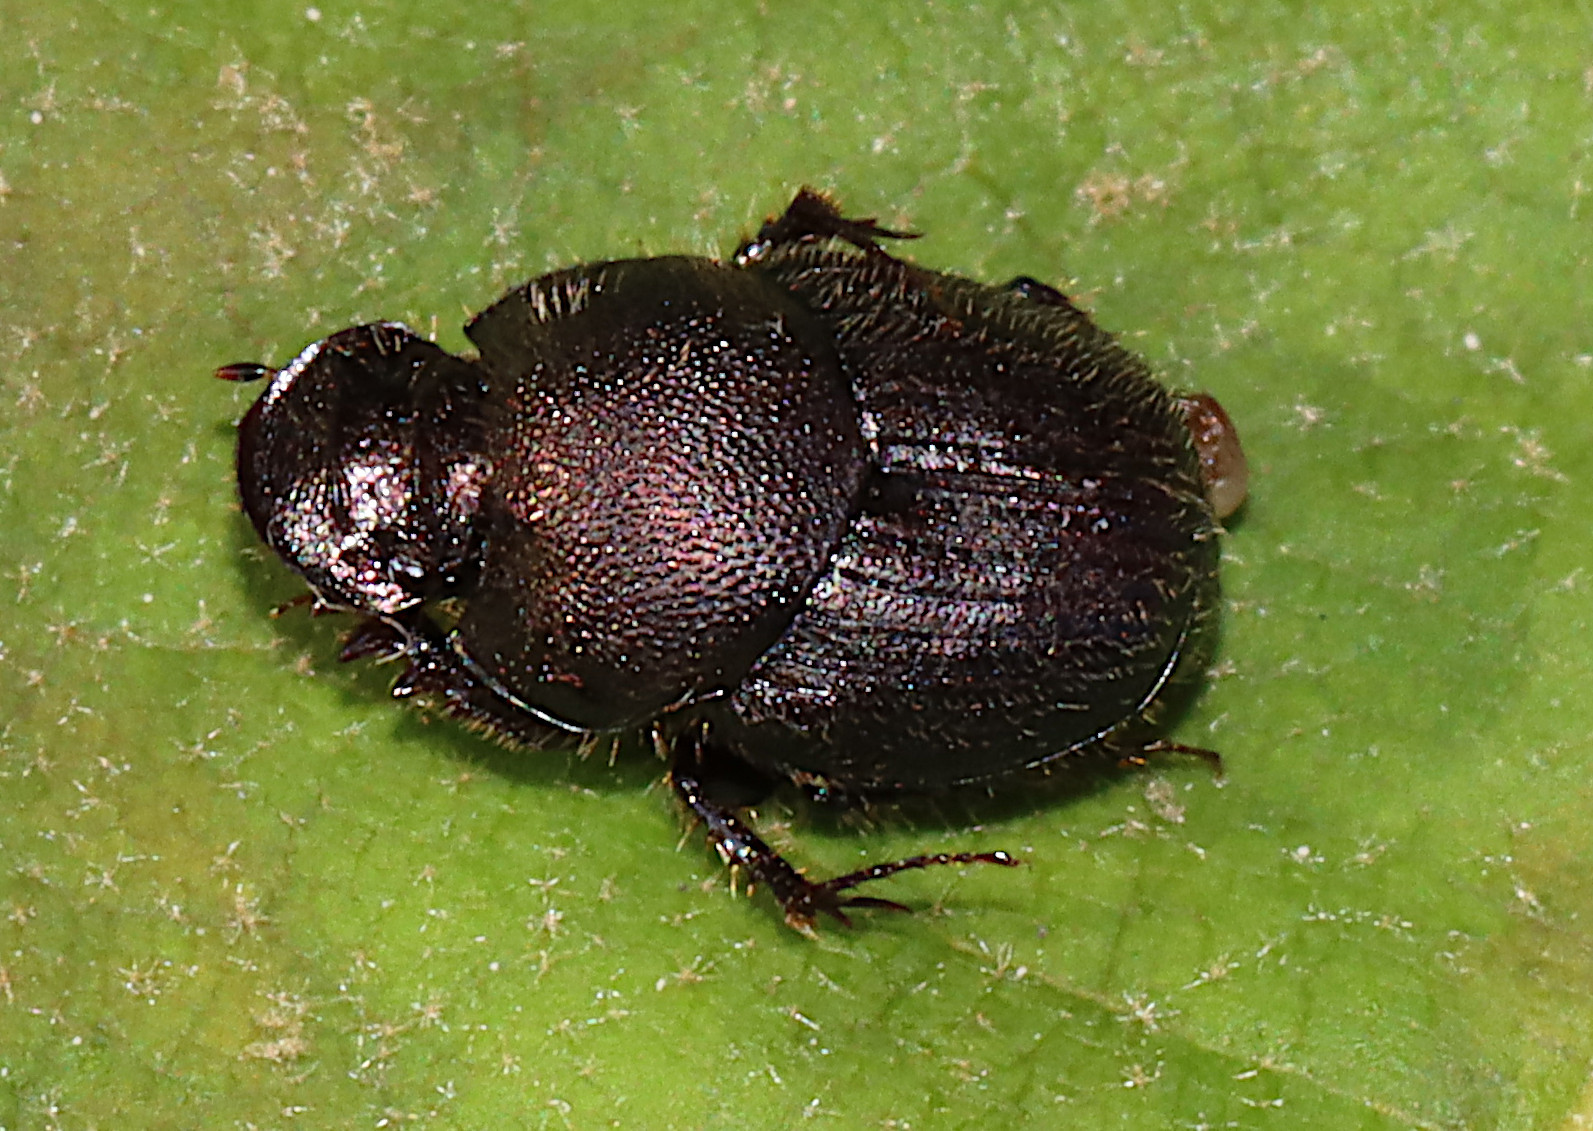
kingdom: Animalia
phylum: Arthropoda
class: Insecta
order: Coleoptera
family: Scarabaeidae
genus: Onthophagus
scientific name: Onthophagus hecate
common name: Scooped scarab
